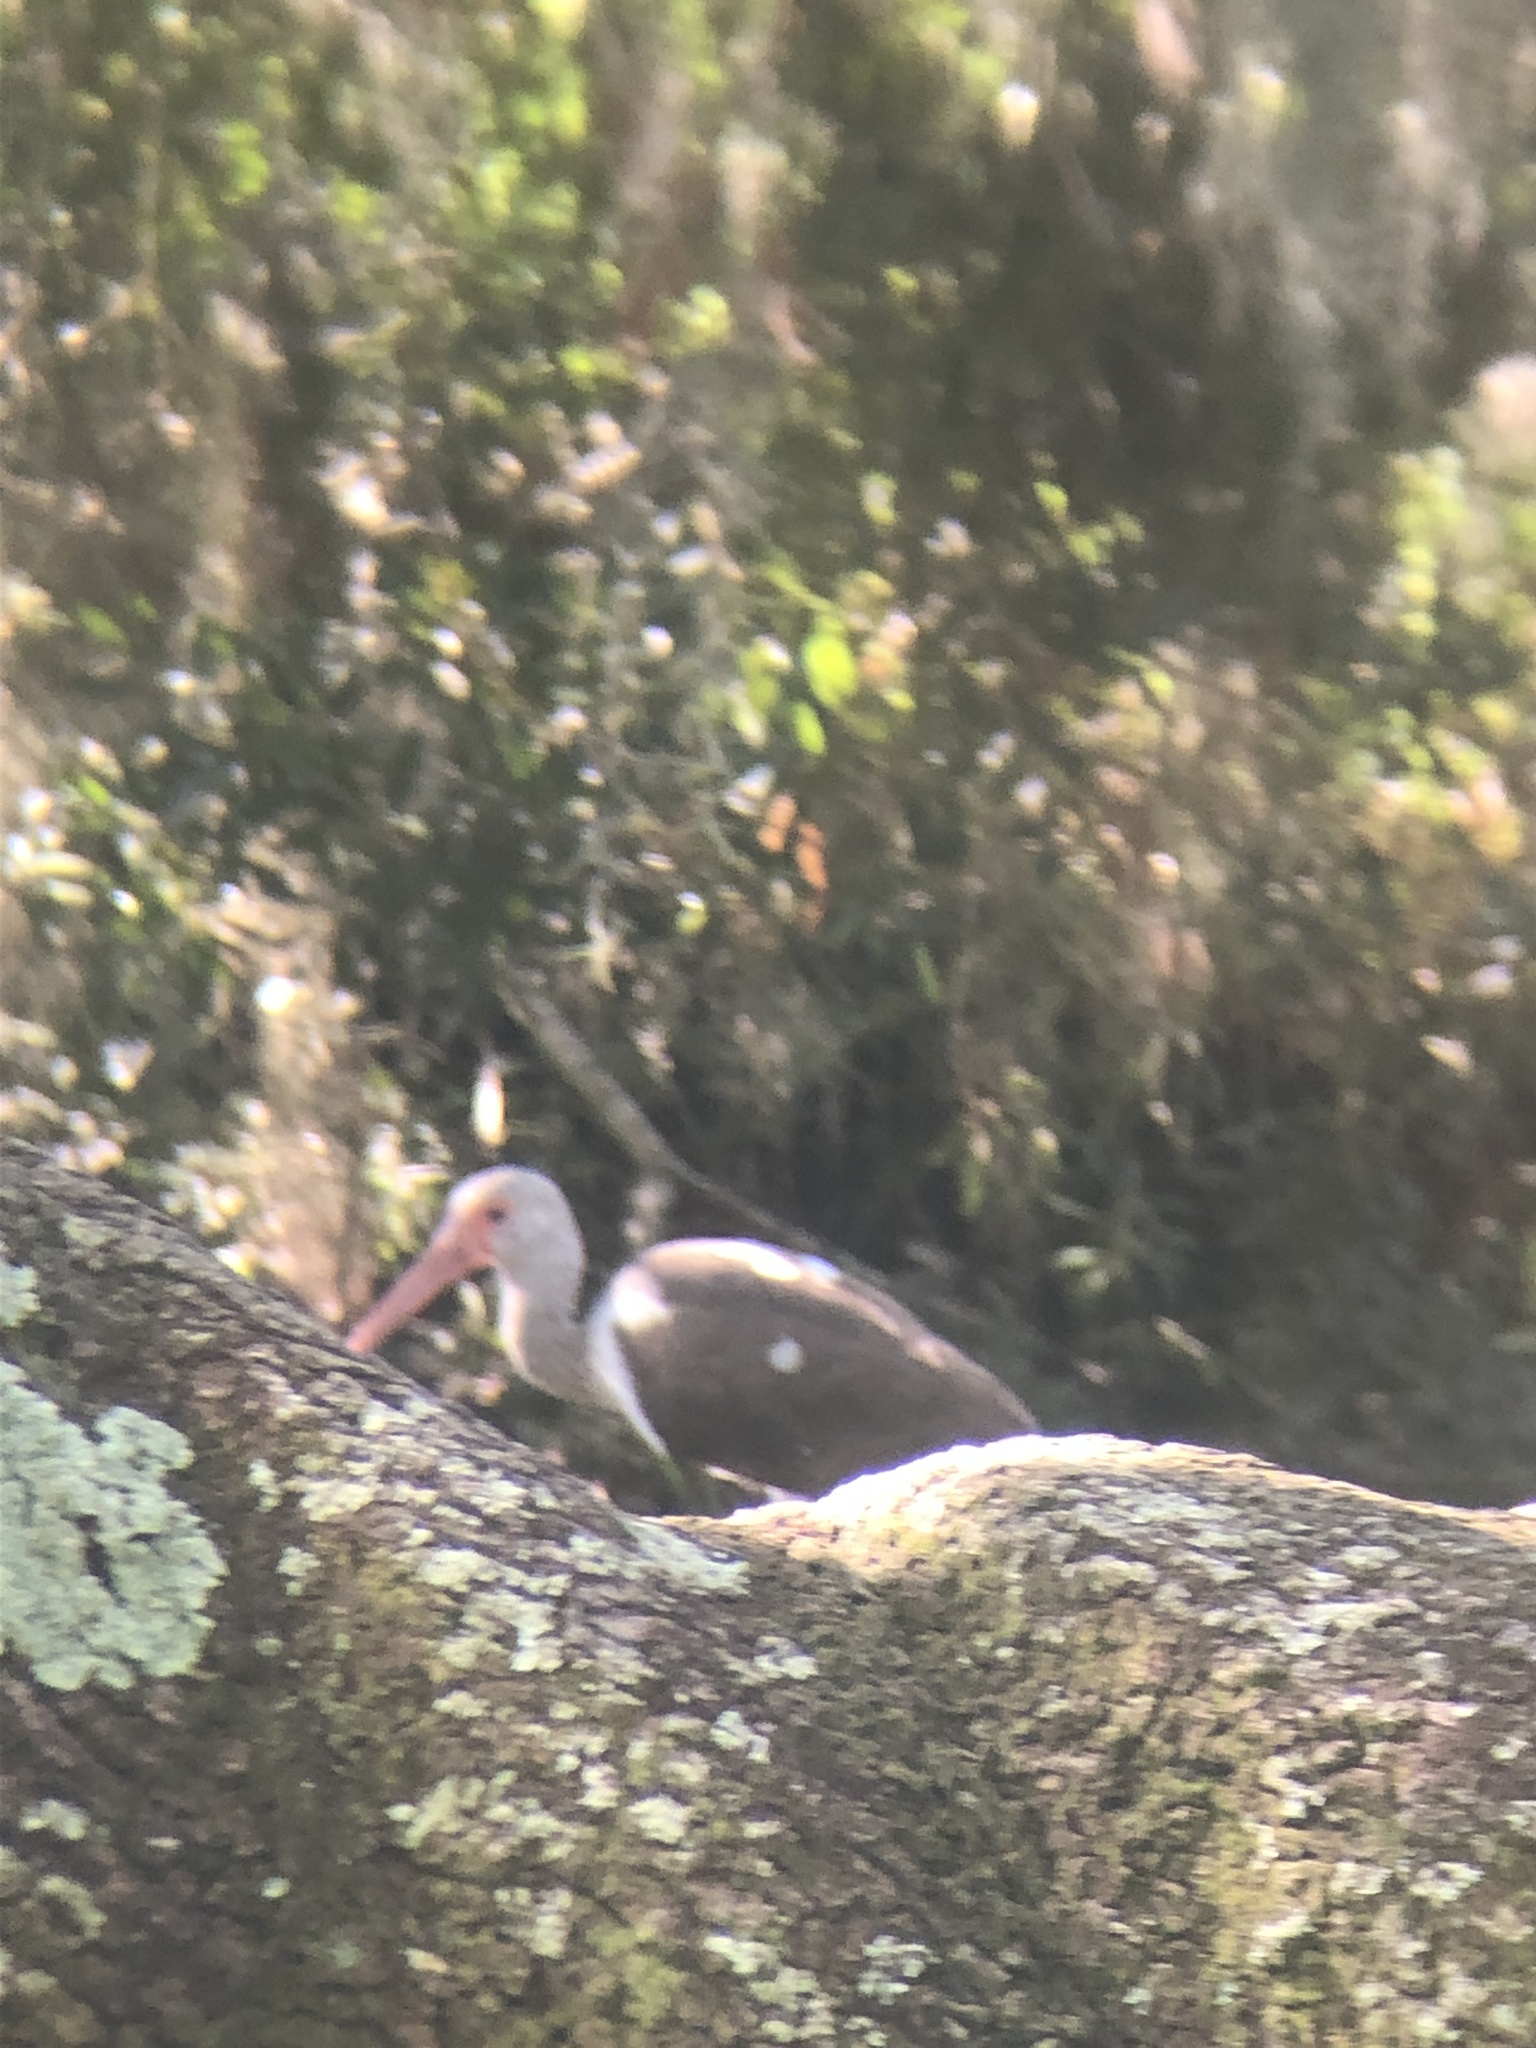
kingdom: Animalia
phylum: Chordata
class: Aves
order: Pelecaniformes
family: Threskiornithidae
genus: Eudocimus
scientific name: Eudocimus albus
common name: White ibis
